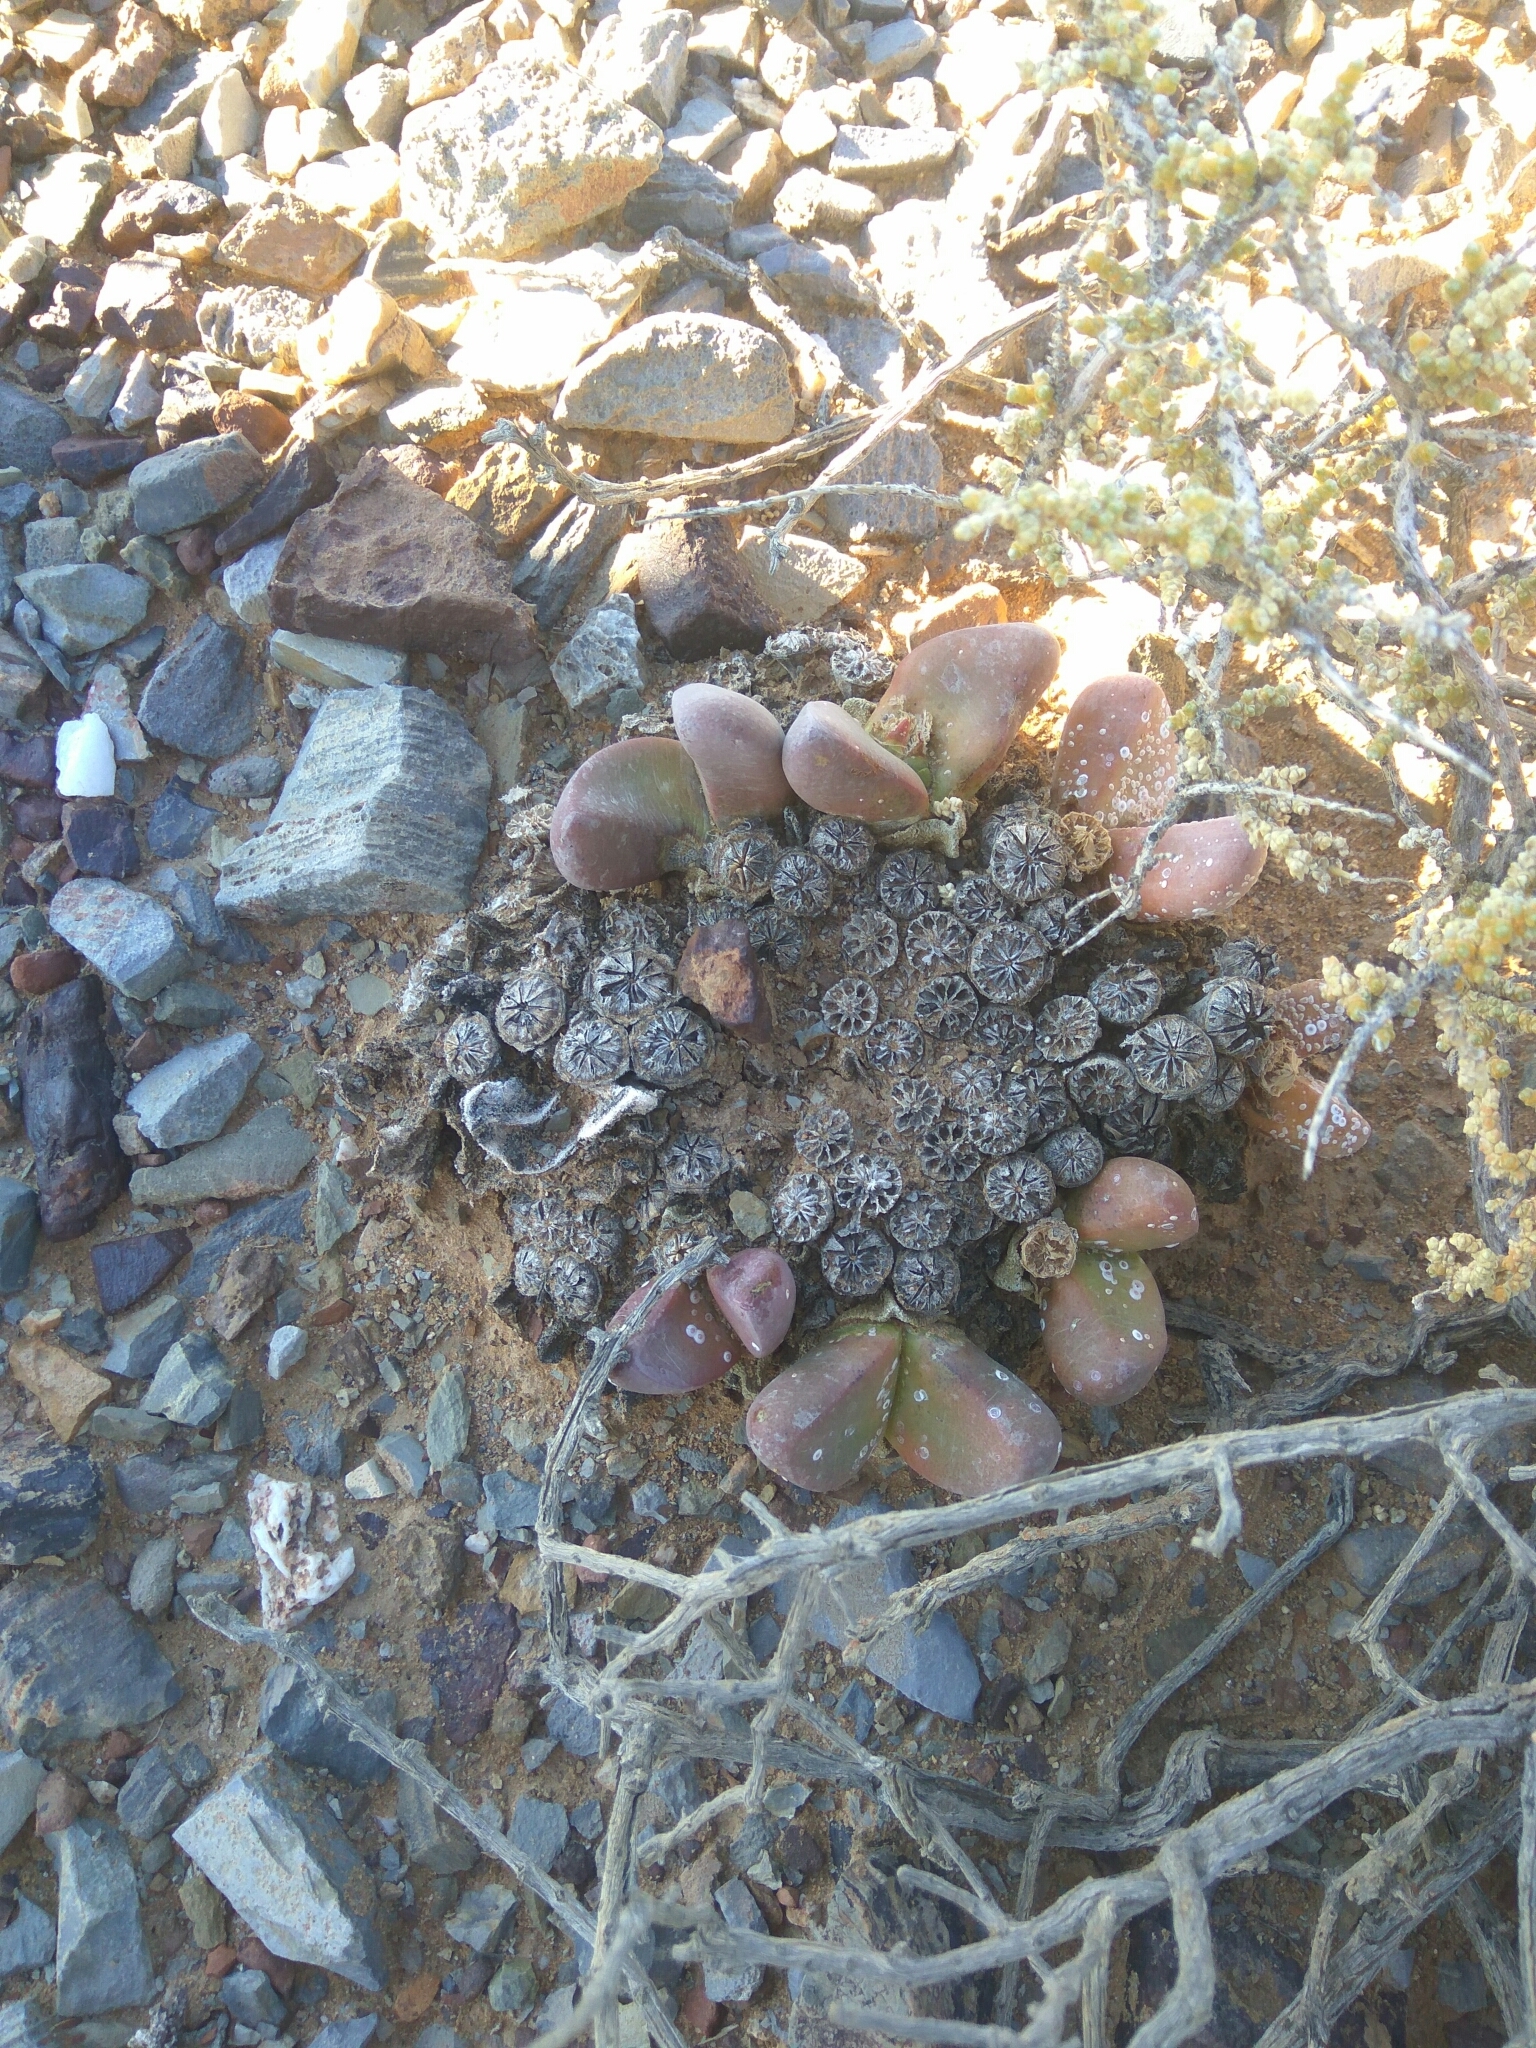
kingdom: Plantae
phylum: Tracheophyta
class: Magnoliopsida
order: Caryophyllales
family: Aizoaceae
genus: Tanquana
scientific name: Tanquana prismatica
